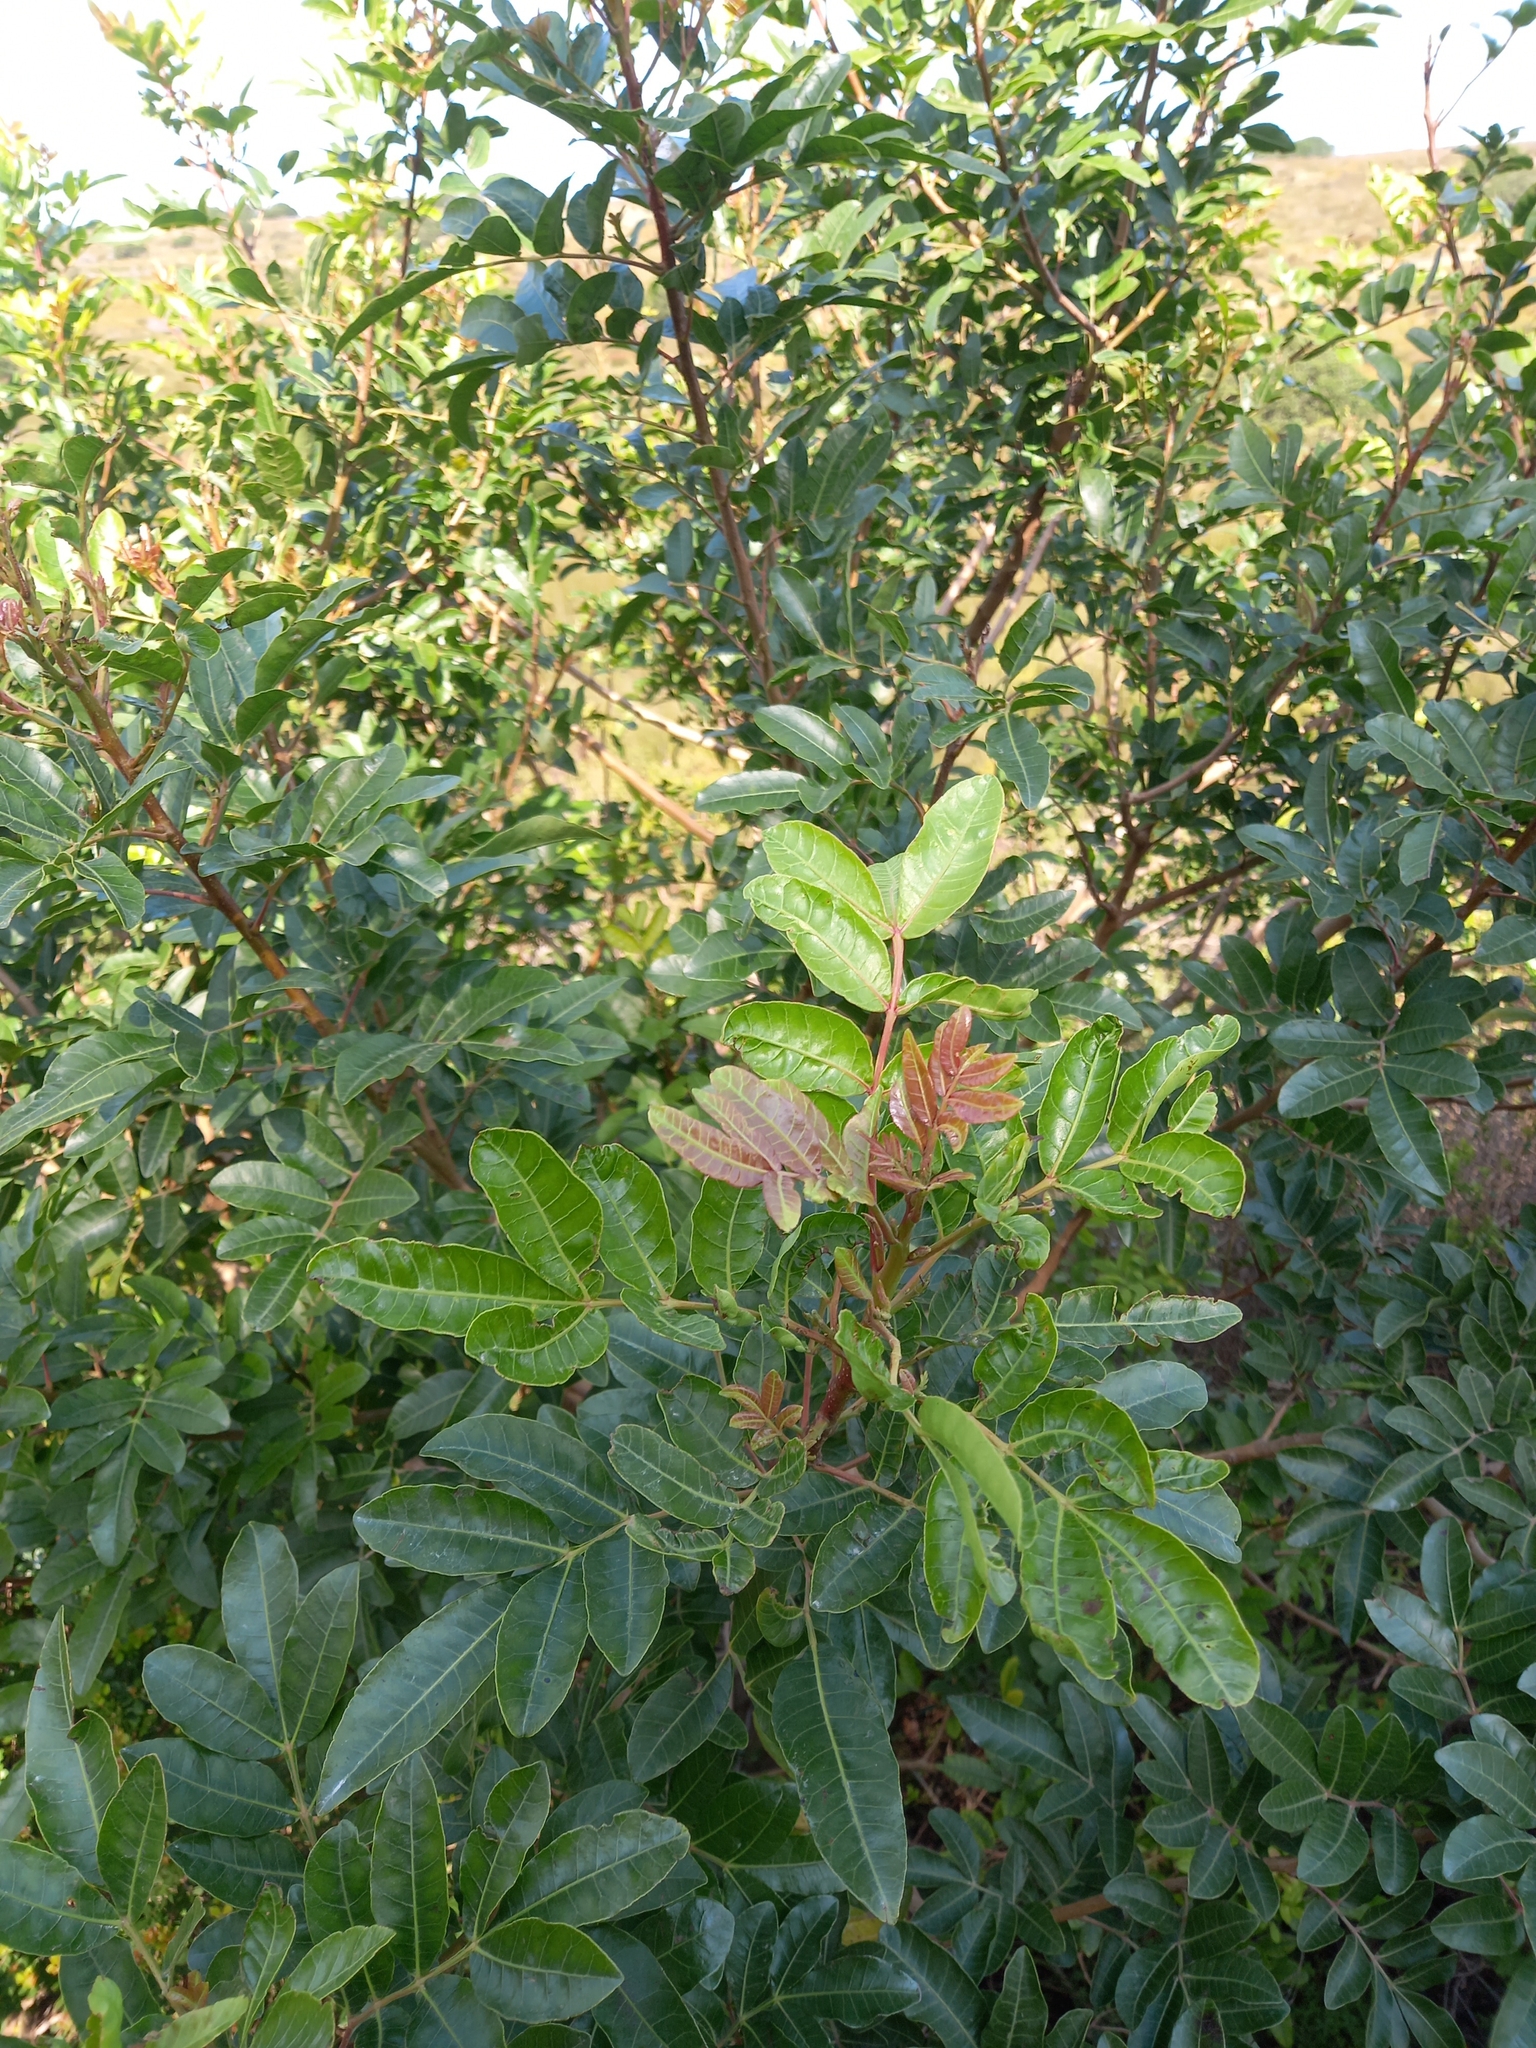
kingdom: Plantae
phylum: Tracheophyta
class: Magnoliopsida
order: Sapindales
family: Anacardiaceae
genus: Schinus
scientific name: Schinus terebinthifolia
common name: Brazilian peppertree
